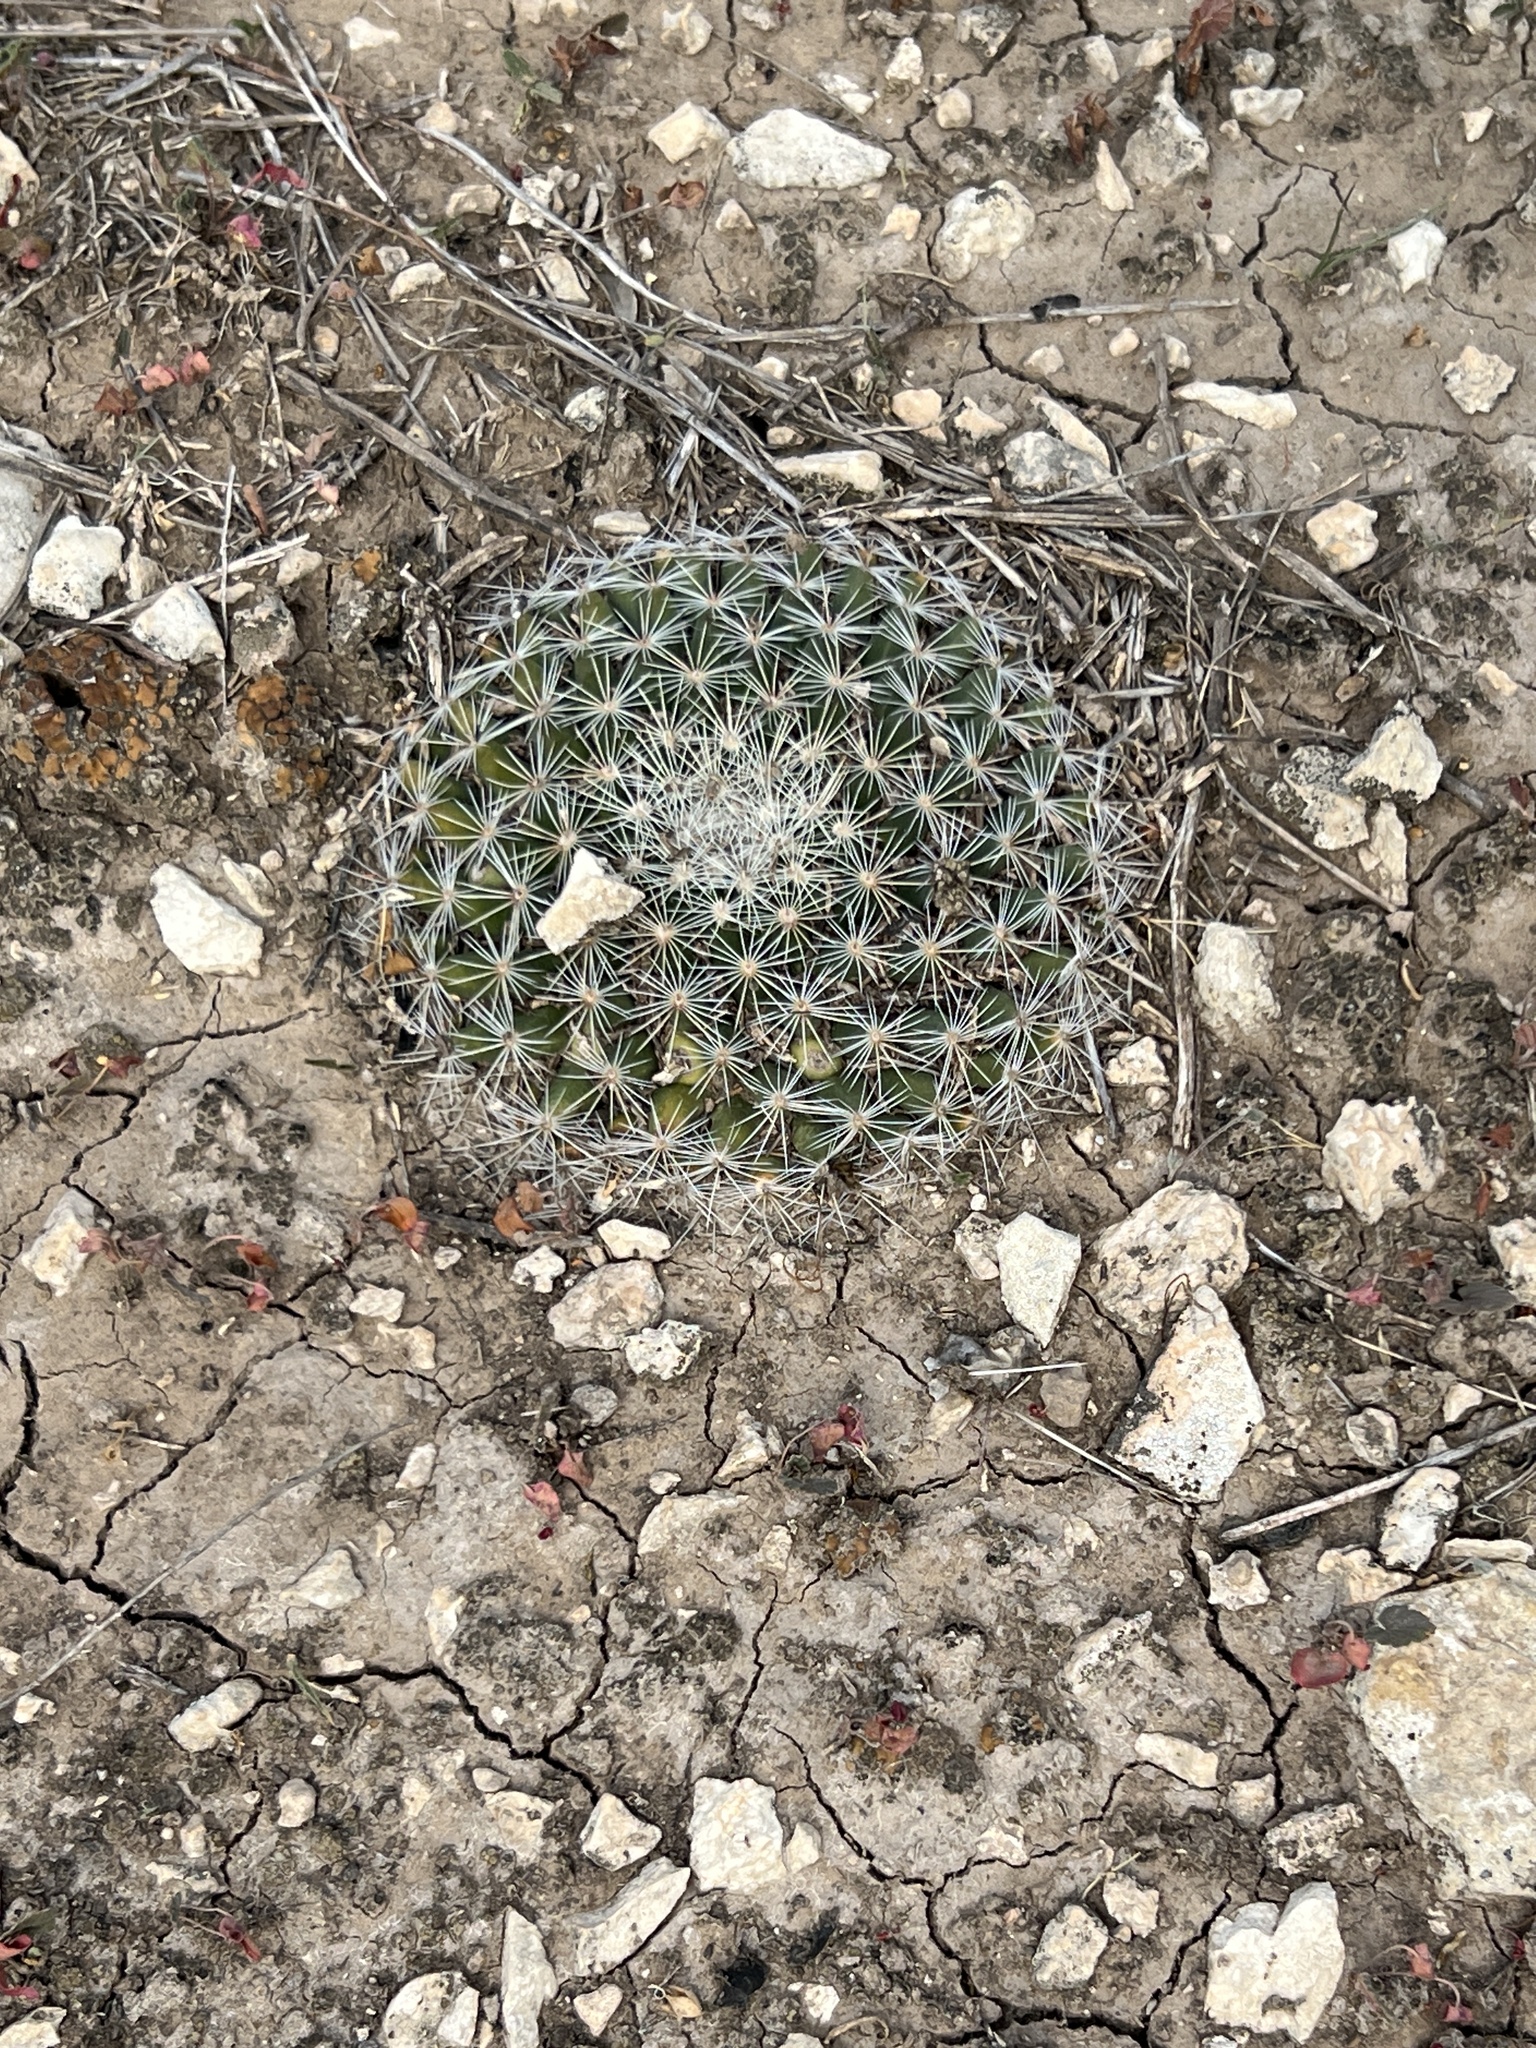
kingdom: Plantae
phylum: Tracheophyta
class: Magnoliopsida
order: Caryophyllales
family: Cactaceae
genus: Mammillaria
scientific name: Mammillaria heyderi
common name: Little nipple cactus
